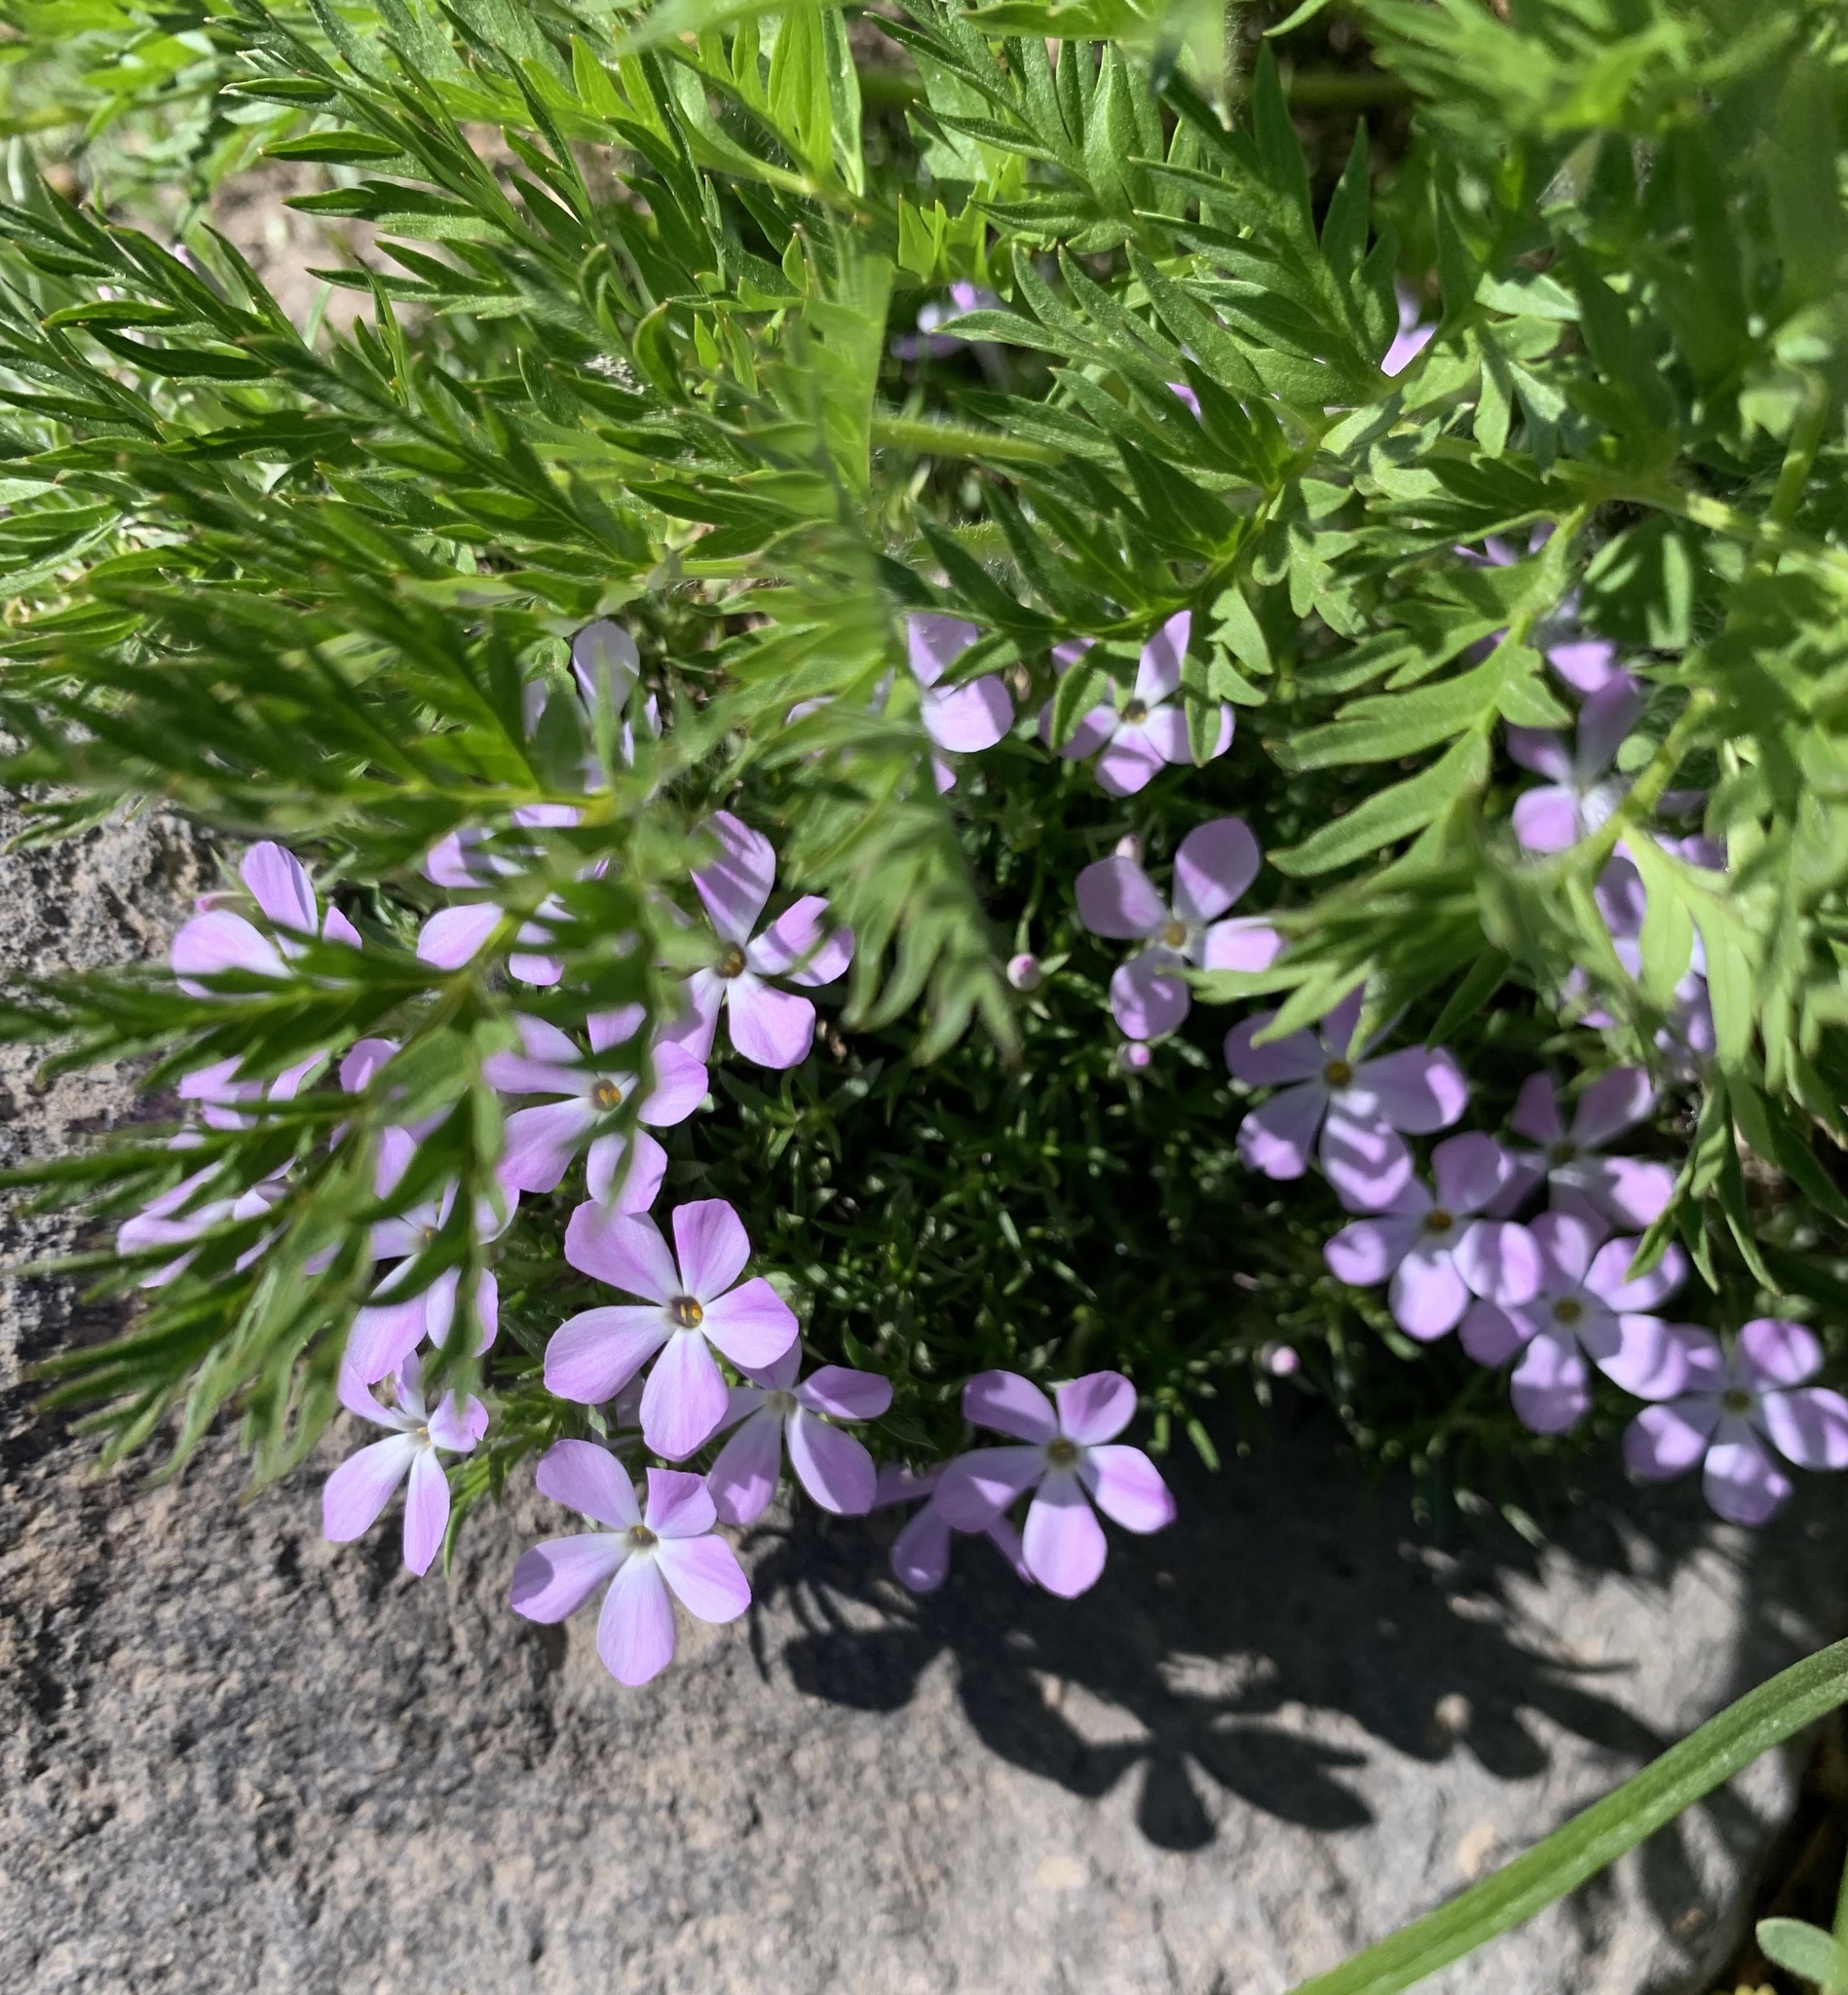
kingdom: Plantae
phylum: Tracheophyta
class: Magnoliopsida
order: Ericales
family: Polemoniaceae
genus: Phlox
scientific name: Phlox diffusa
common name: Mat phlox
